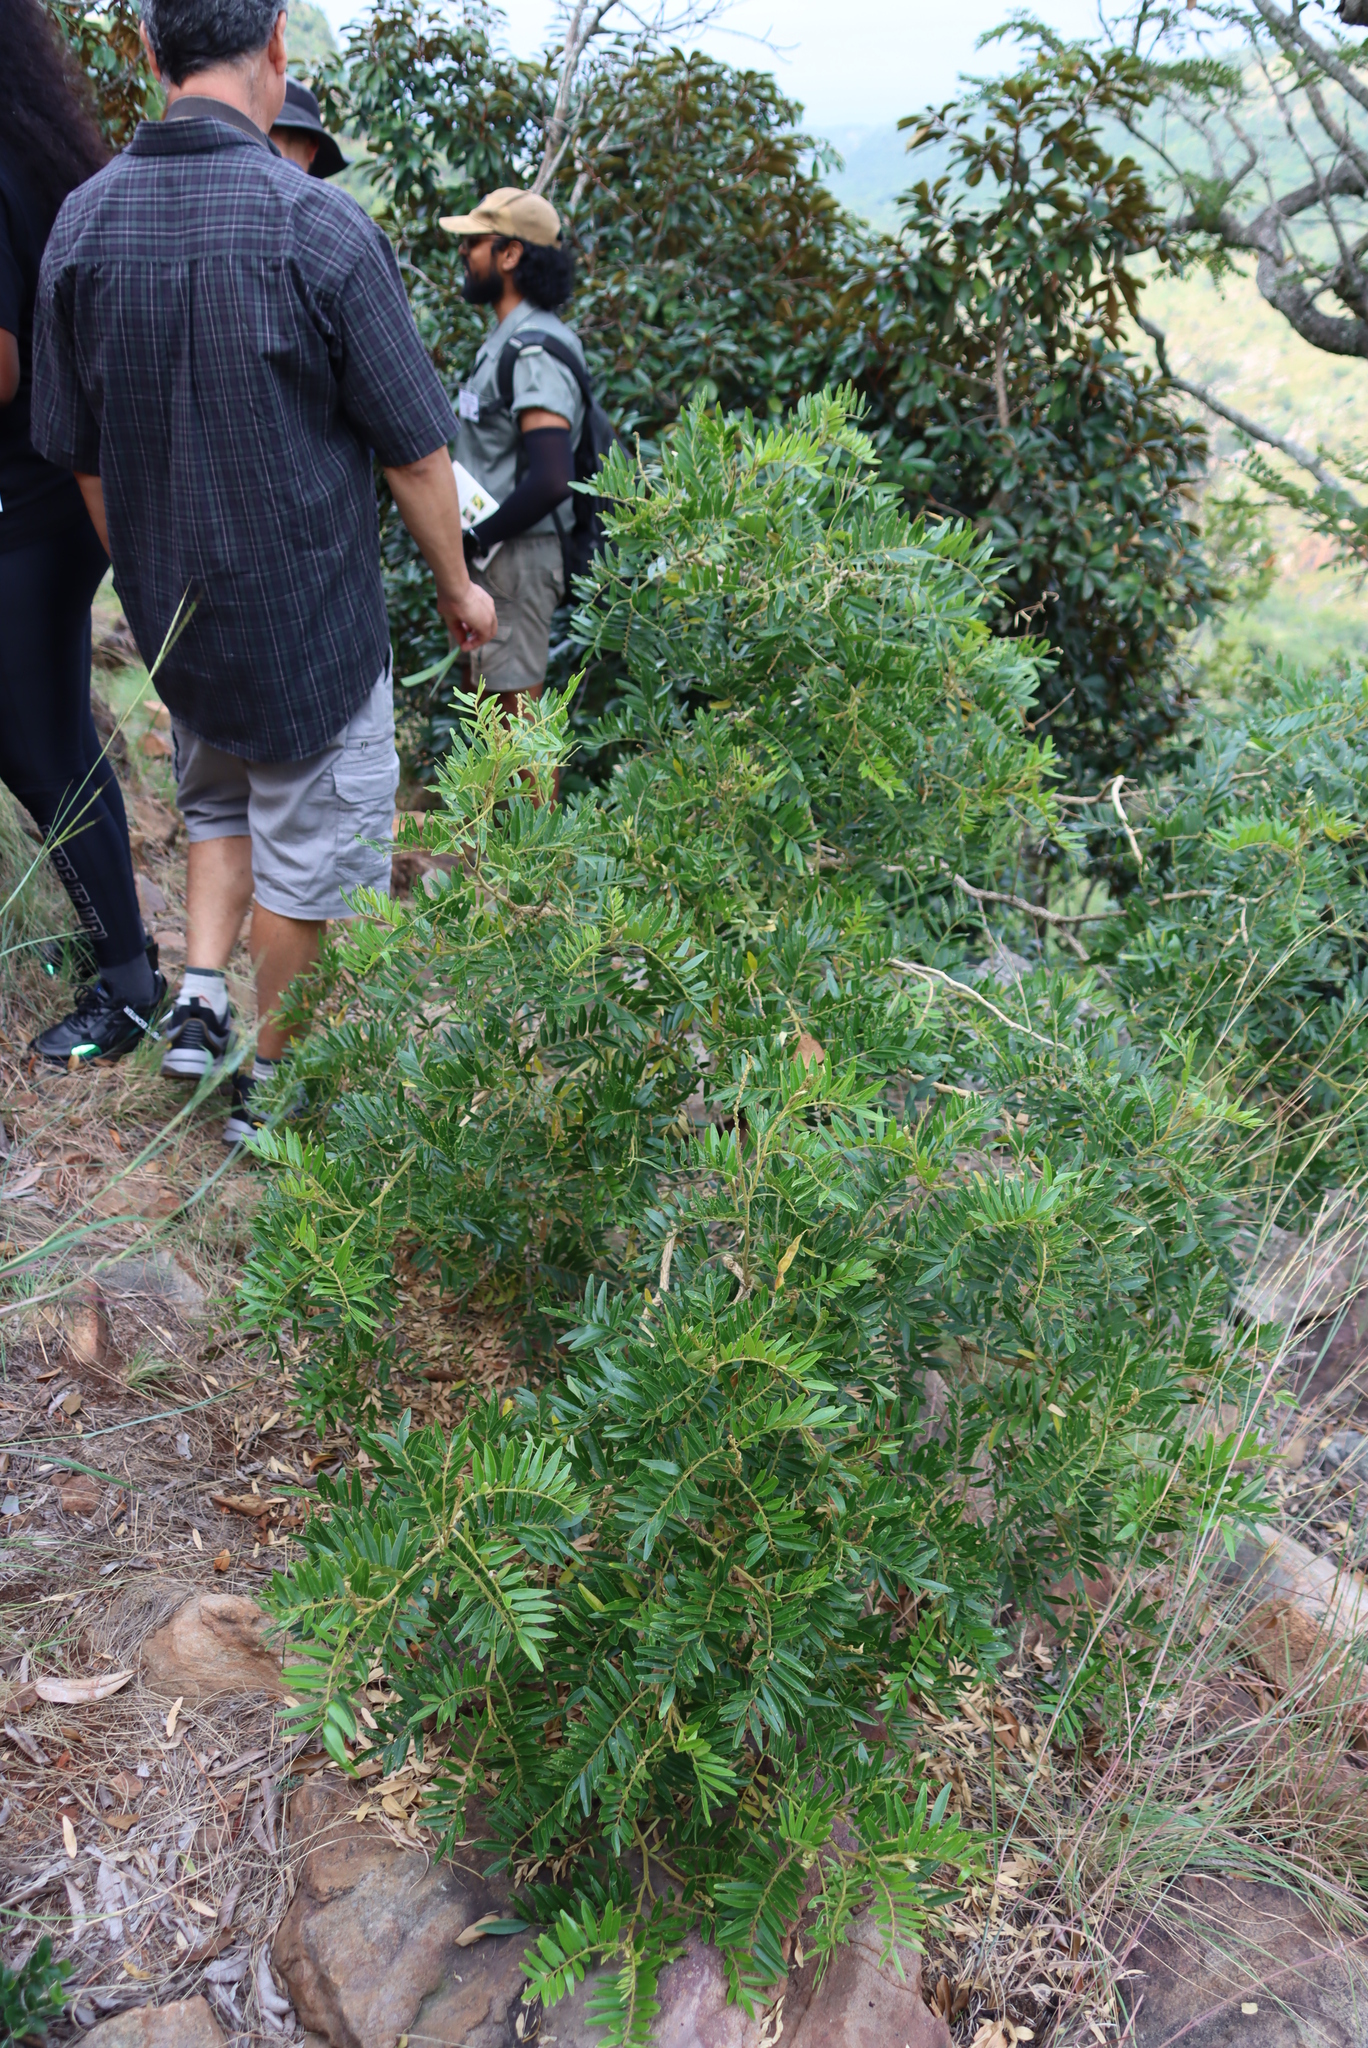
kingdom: Plantae
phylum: Tracheophyta
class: Magnoliopsida
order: Fabales
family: Fabaceae
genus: Mundulea
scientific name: Mundulea sericea
